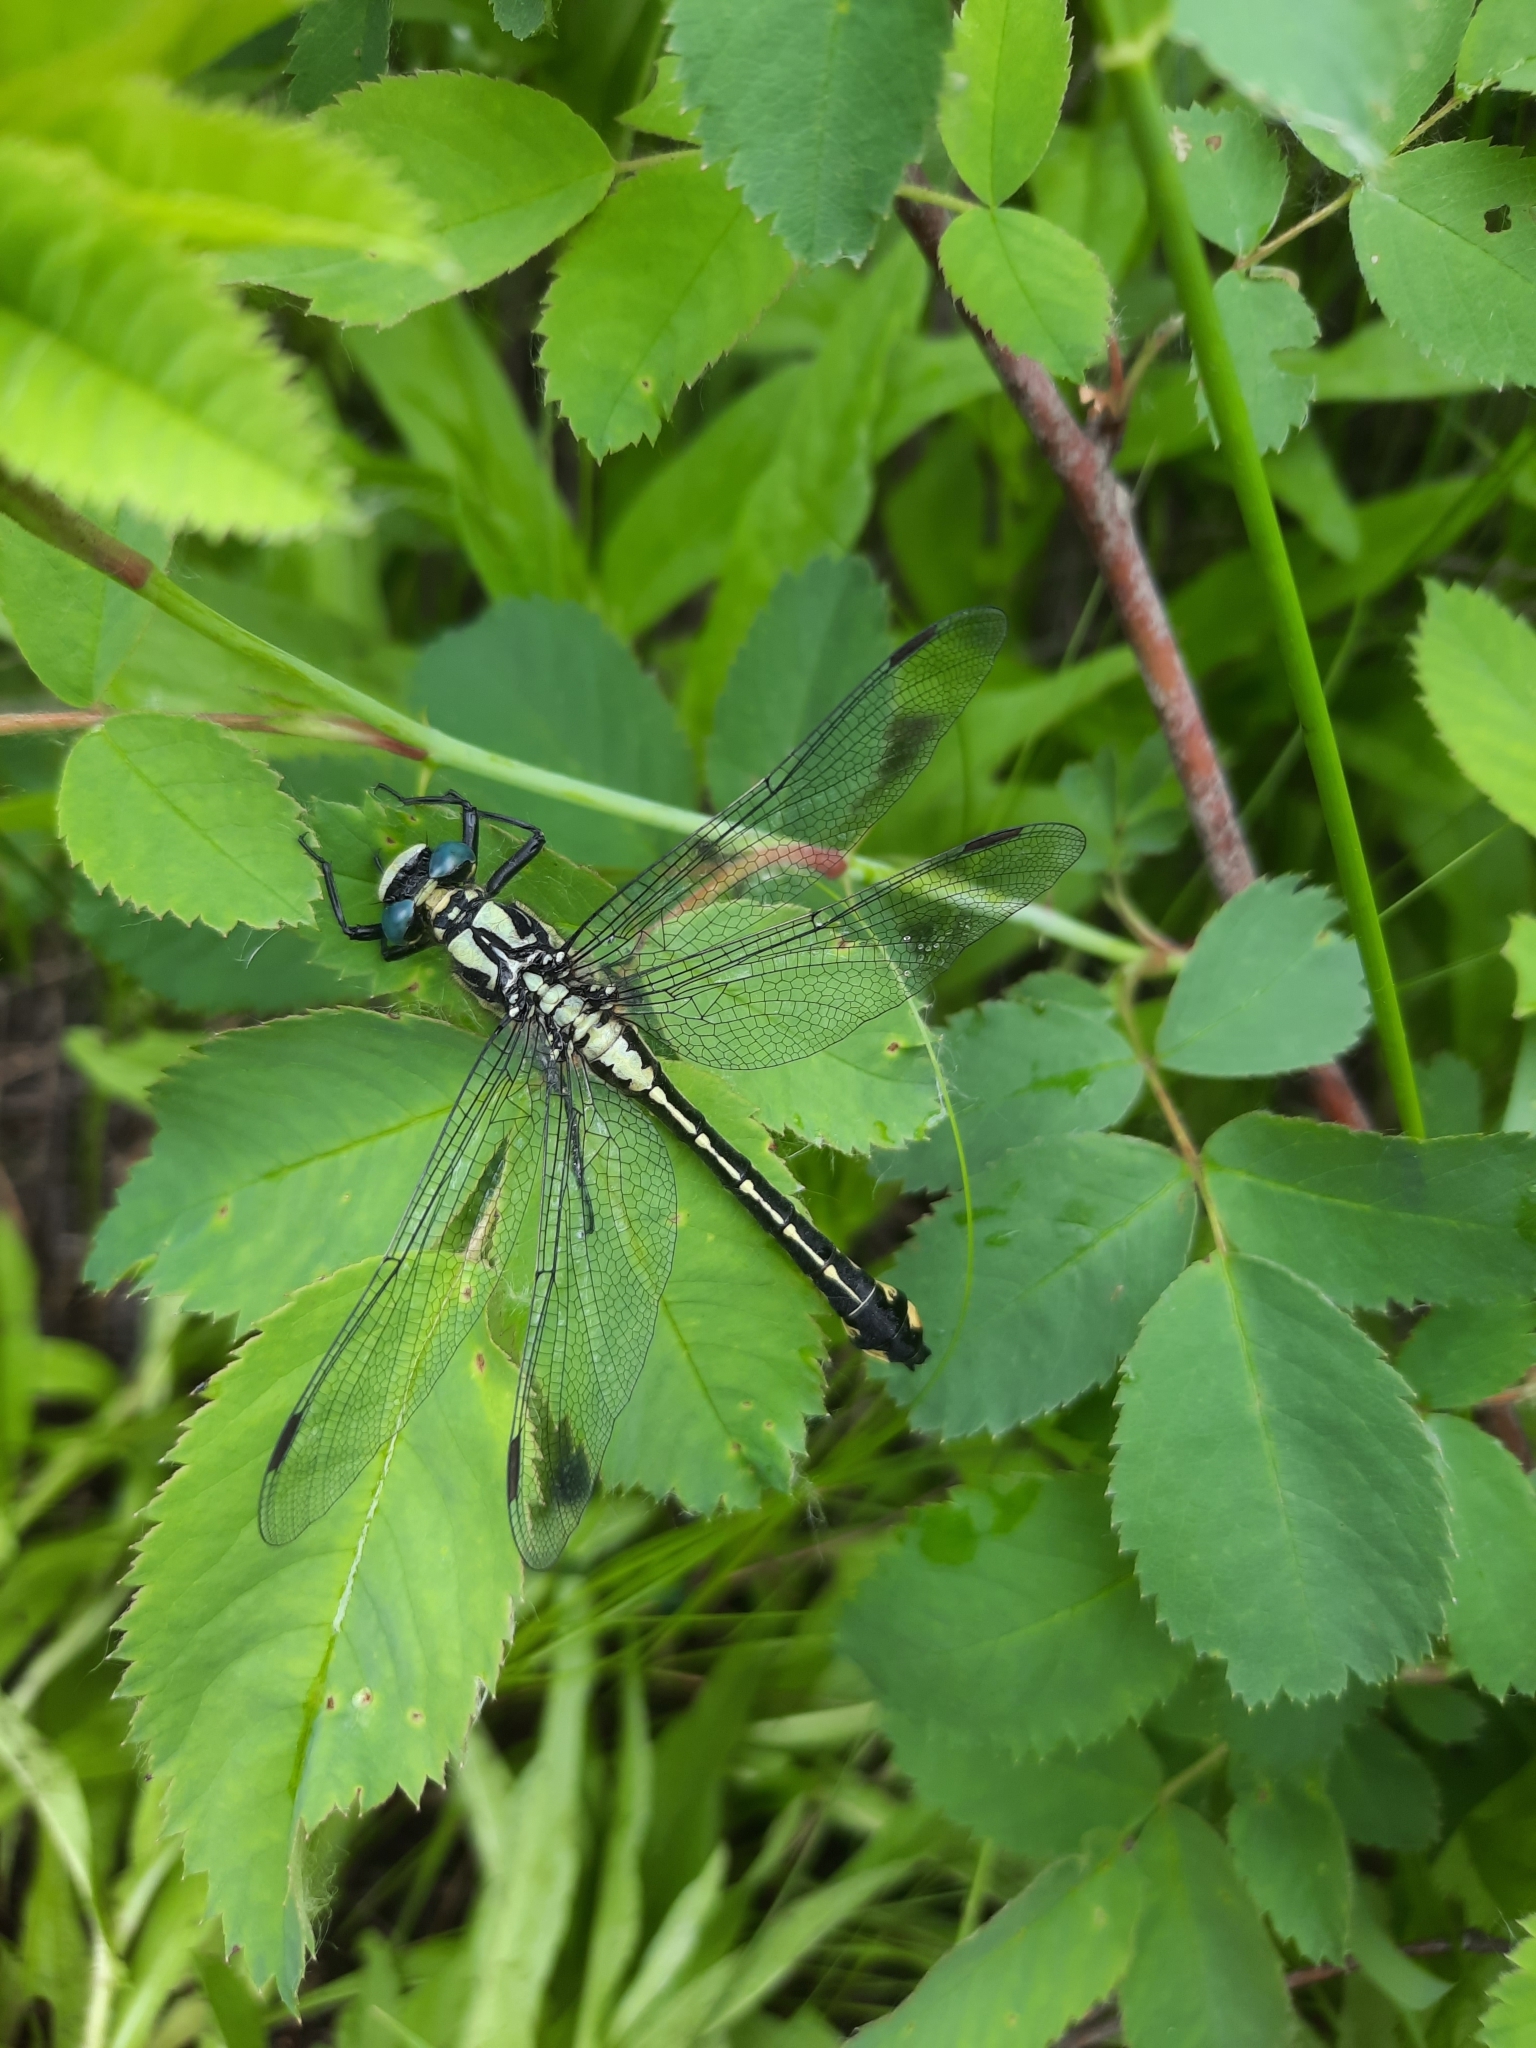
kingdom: Animalia
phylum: Arthropoda
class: Insecta
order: Odonata
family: Gomphidae
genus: Gomphus
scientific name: Gomphus vulgatissimus
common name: Club-tailed dragonfly
